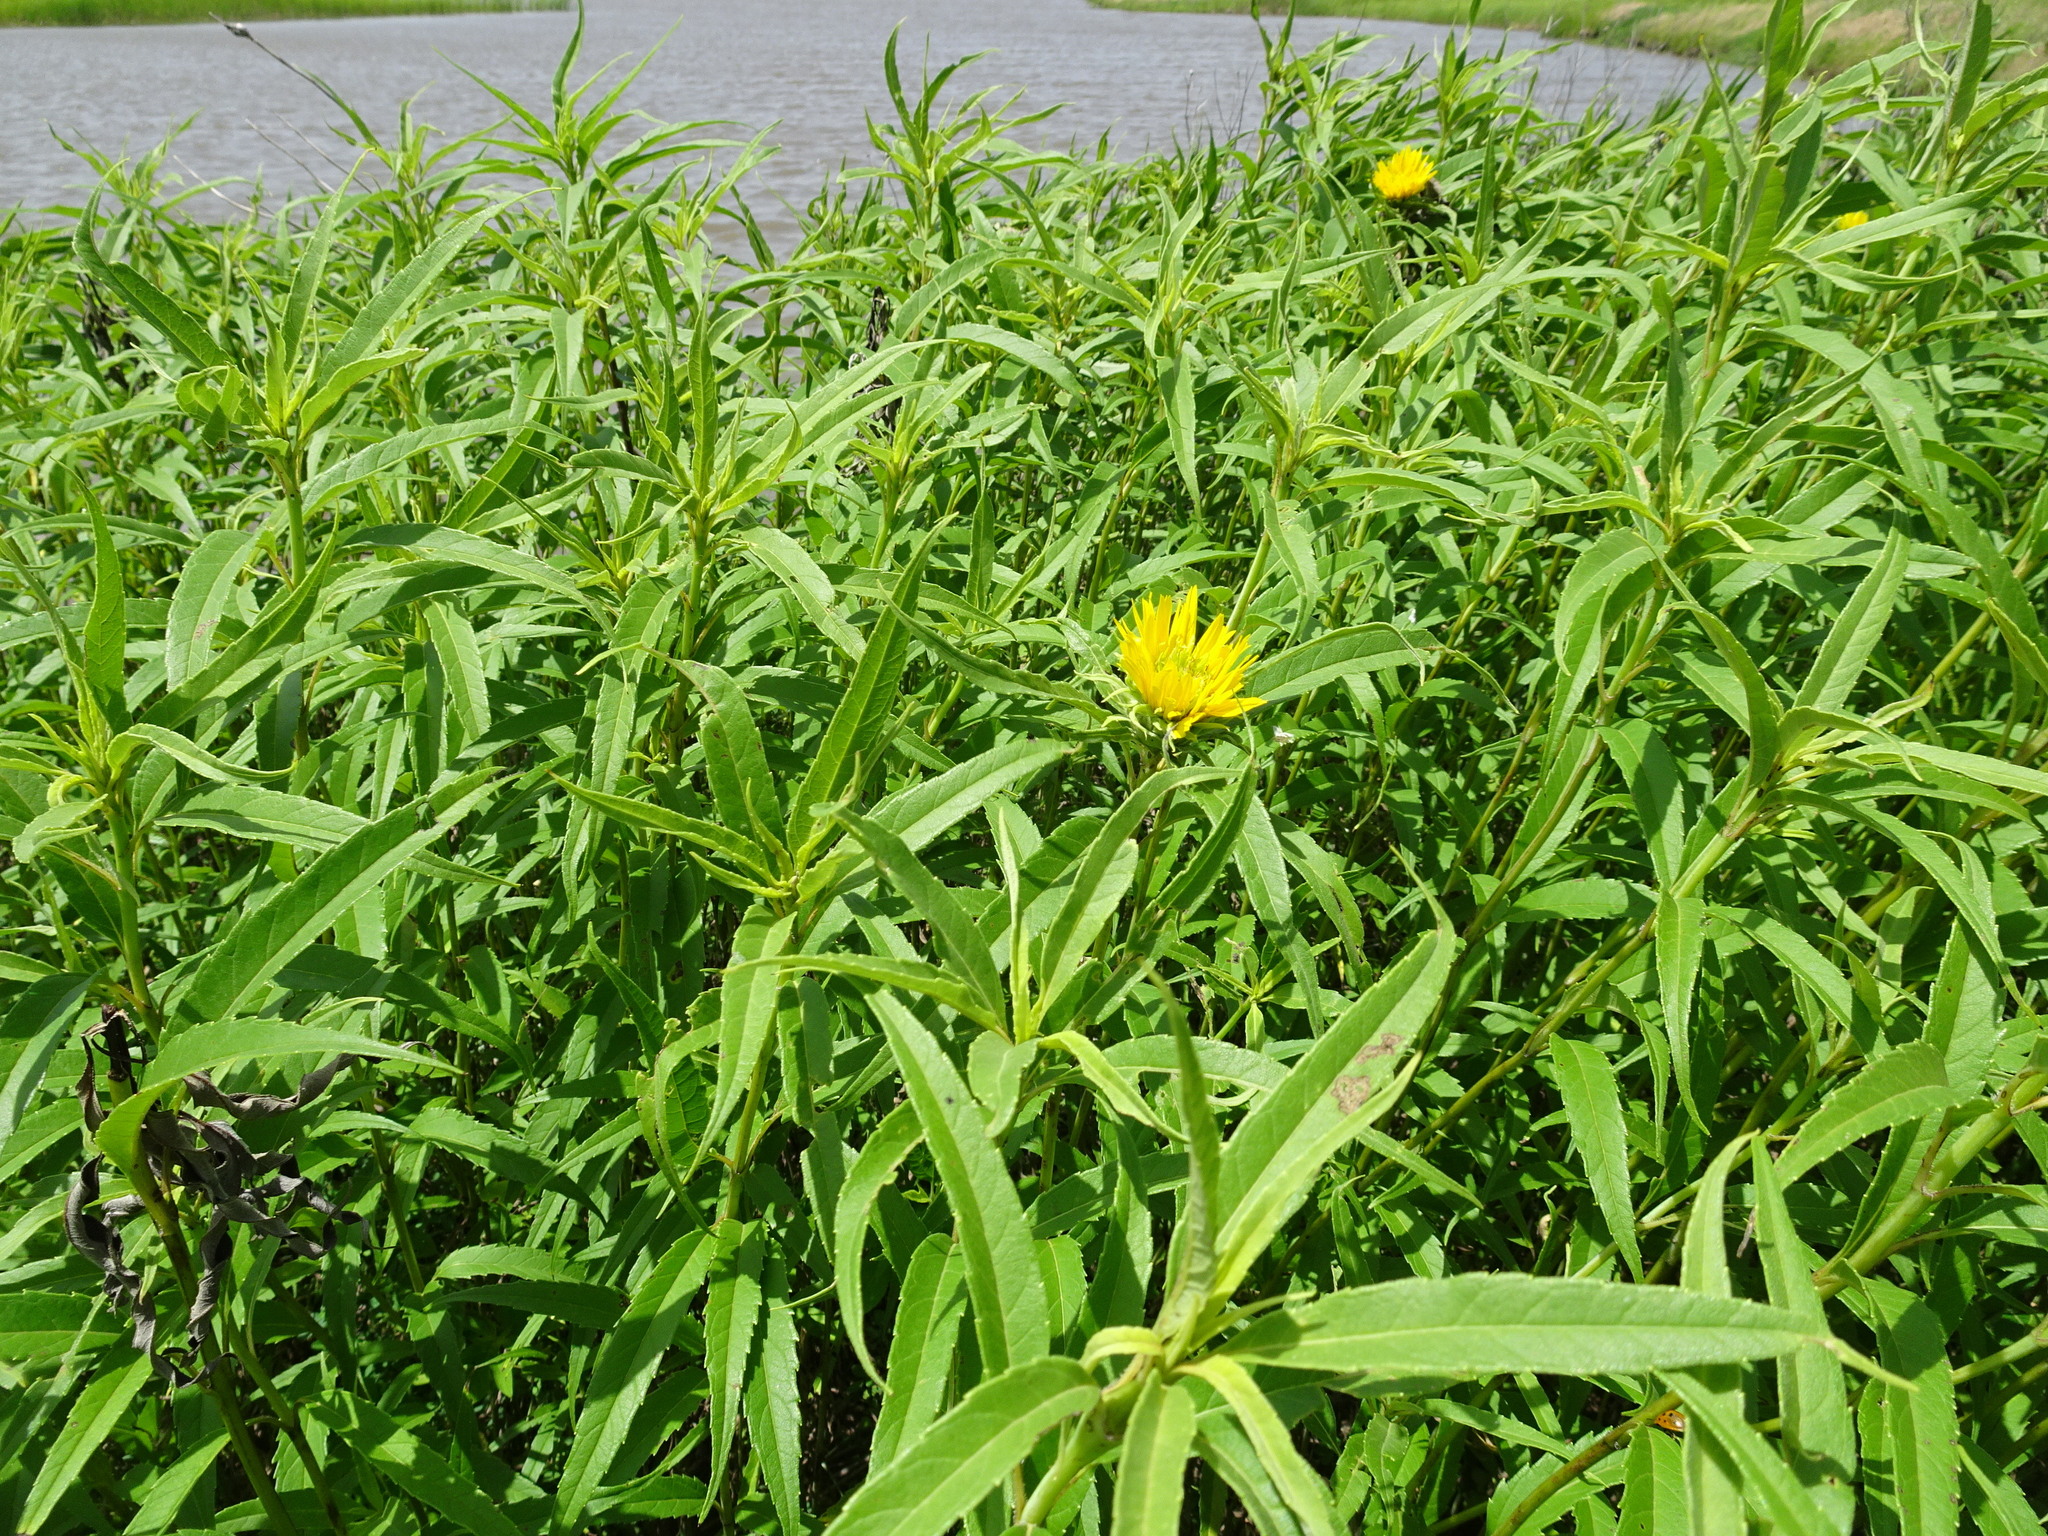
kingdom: Plantae
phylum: Tracheophyta
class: Magnoliopsida
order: Asterales
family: Asteraceae
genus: Helianthus
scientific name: Helianthus grosseserratus
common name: Sawtooth sunflower
